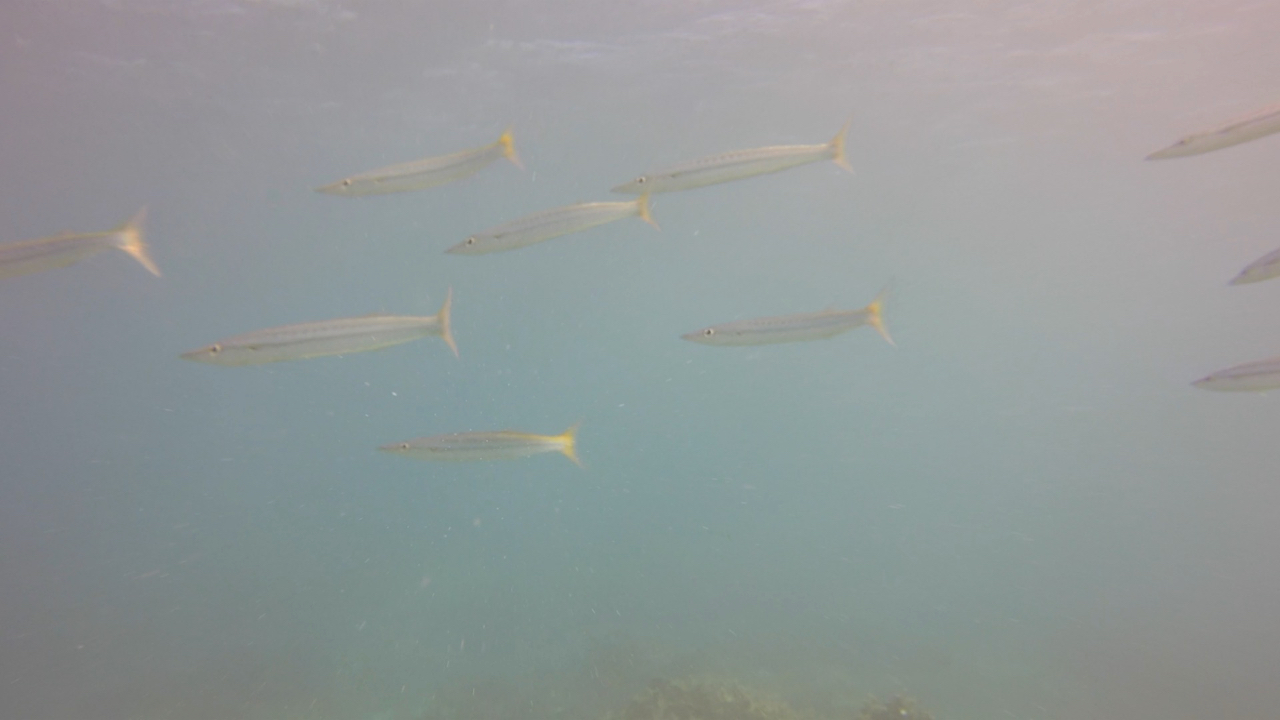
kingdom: Animalia
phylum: Chordata
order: Perciformes
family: Sphyraenidae
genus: Sphyraena
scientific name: Sphyraena obtusata
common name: Obtuse barracuda
